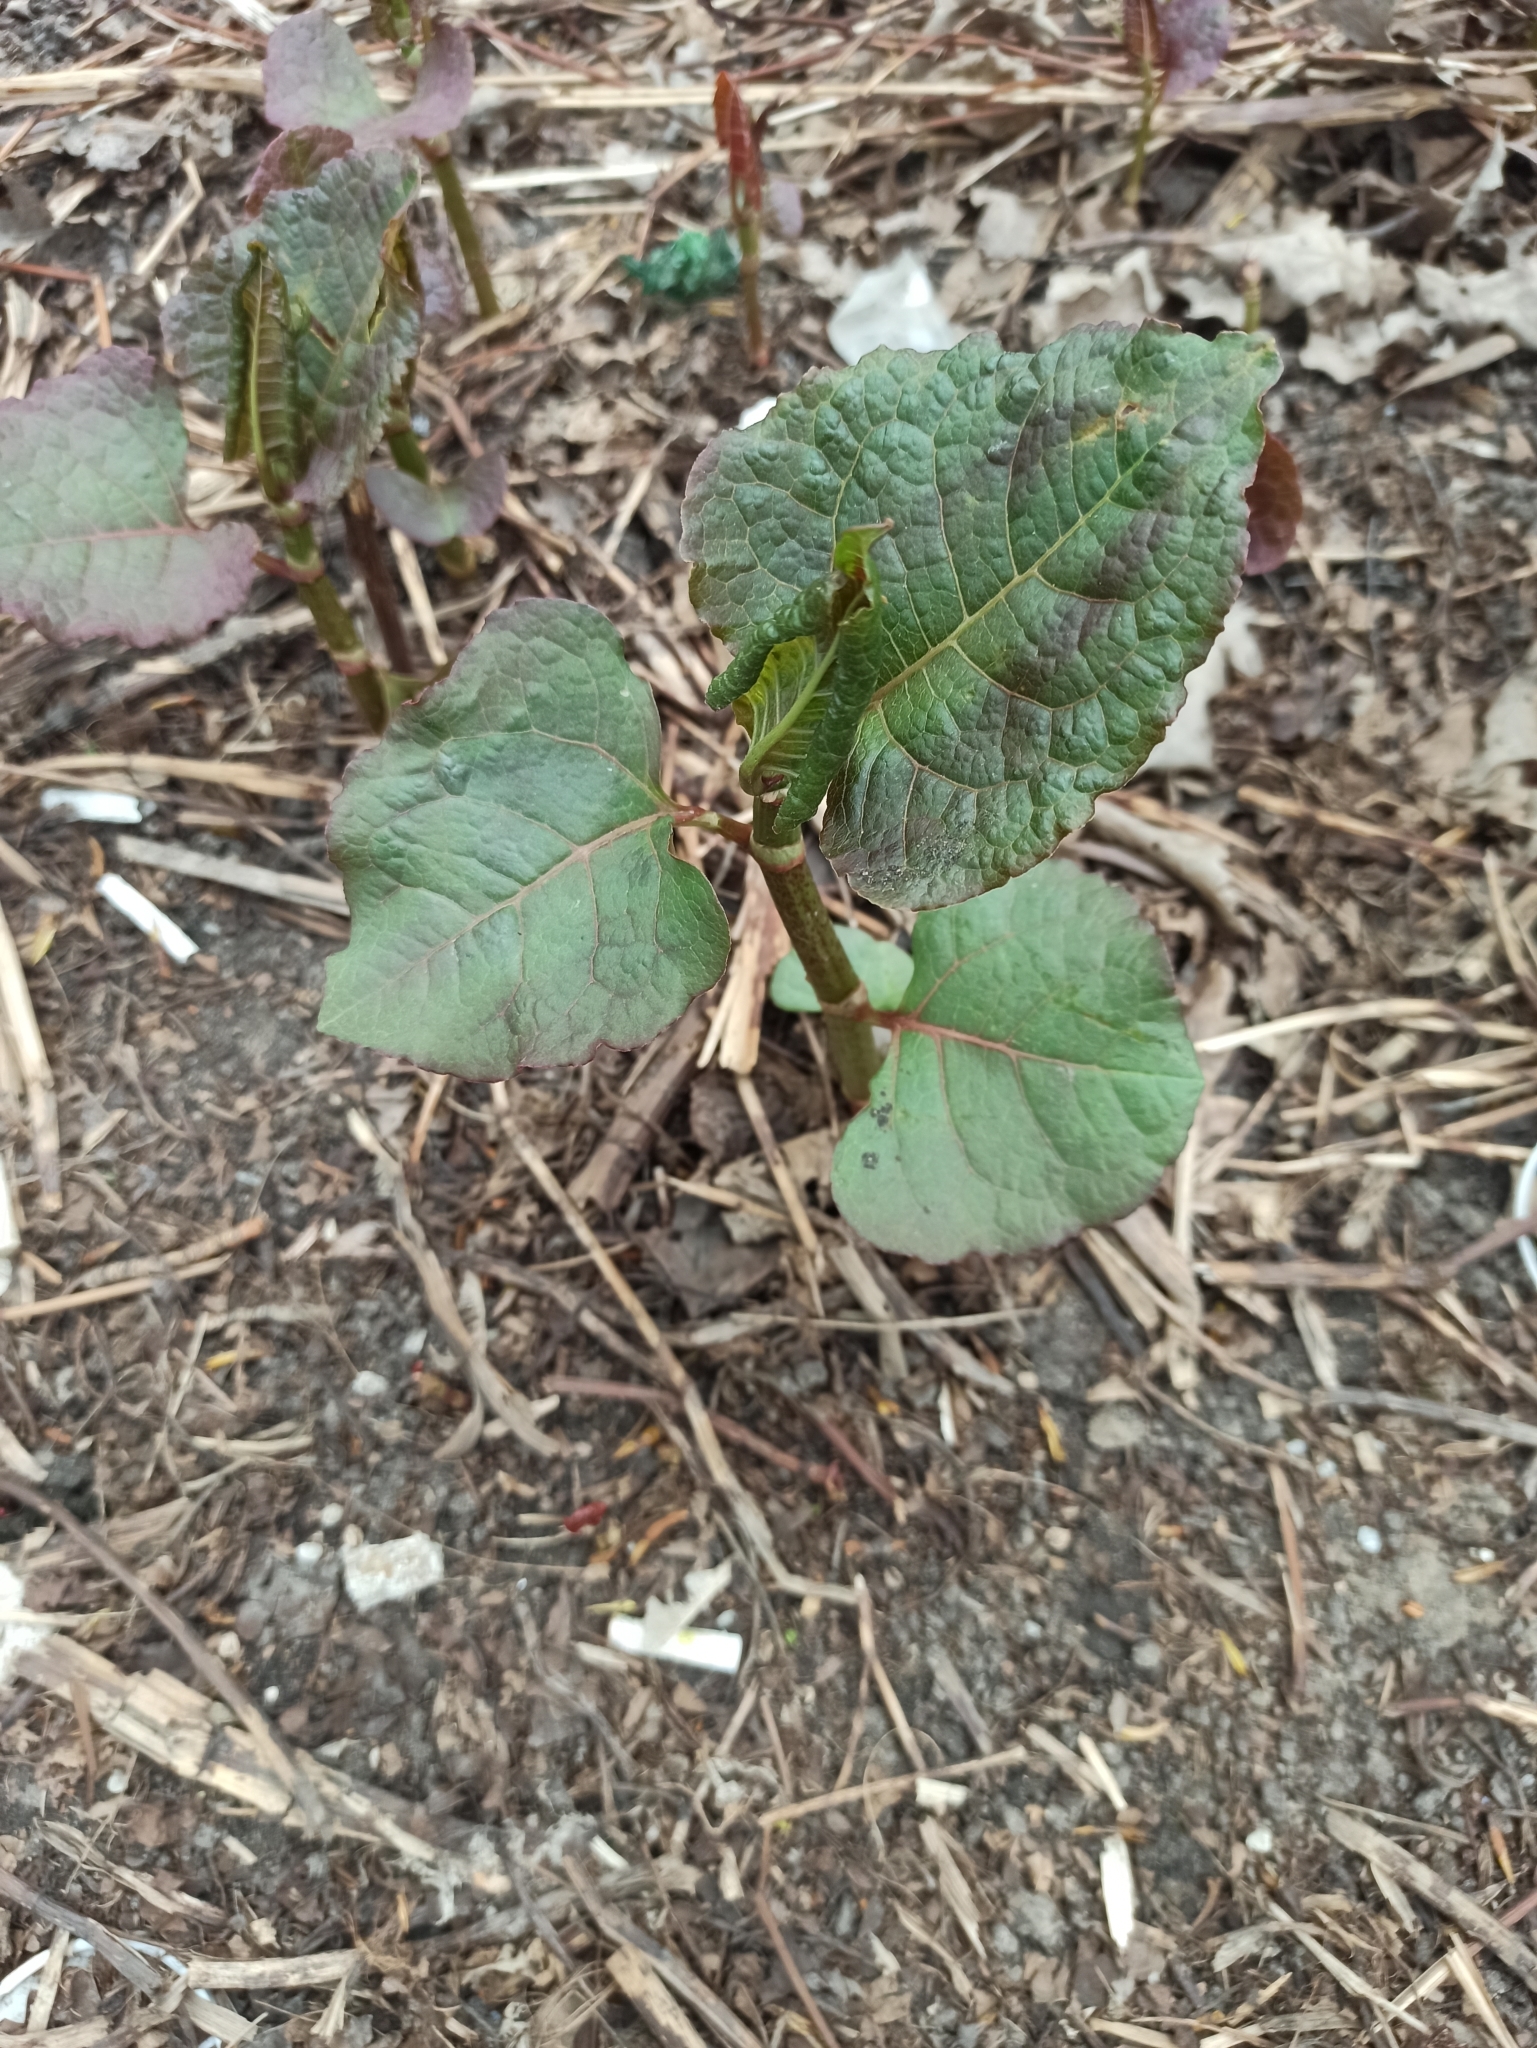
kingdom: Plantae
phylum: Tracheophyta
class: Magnoliopsida
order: Caryophyllales
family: Polygonaceae
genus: Reynoutria
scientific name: Reynoutria bohemica
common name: Bohemian knotweed
